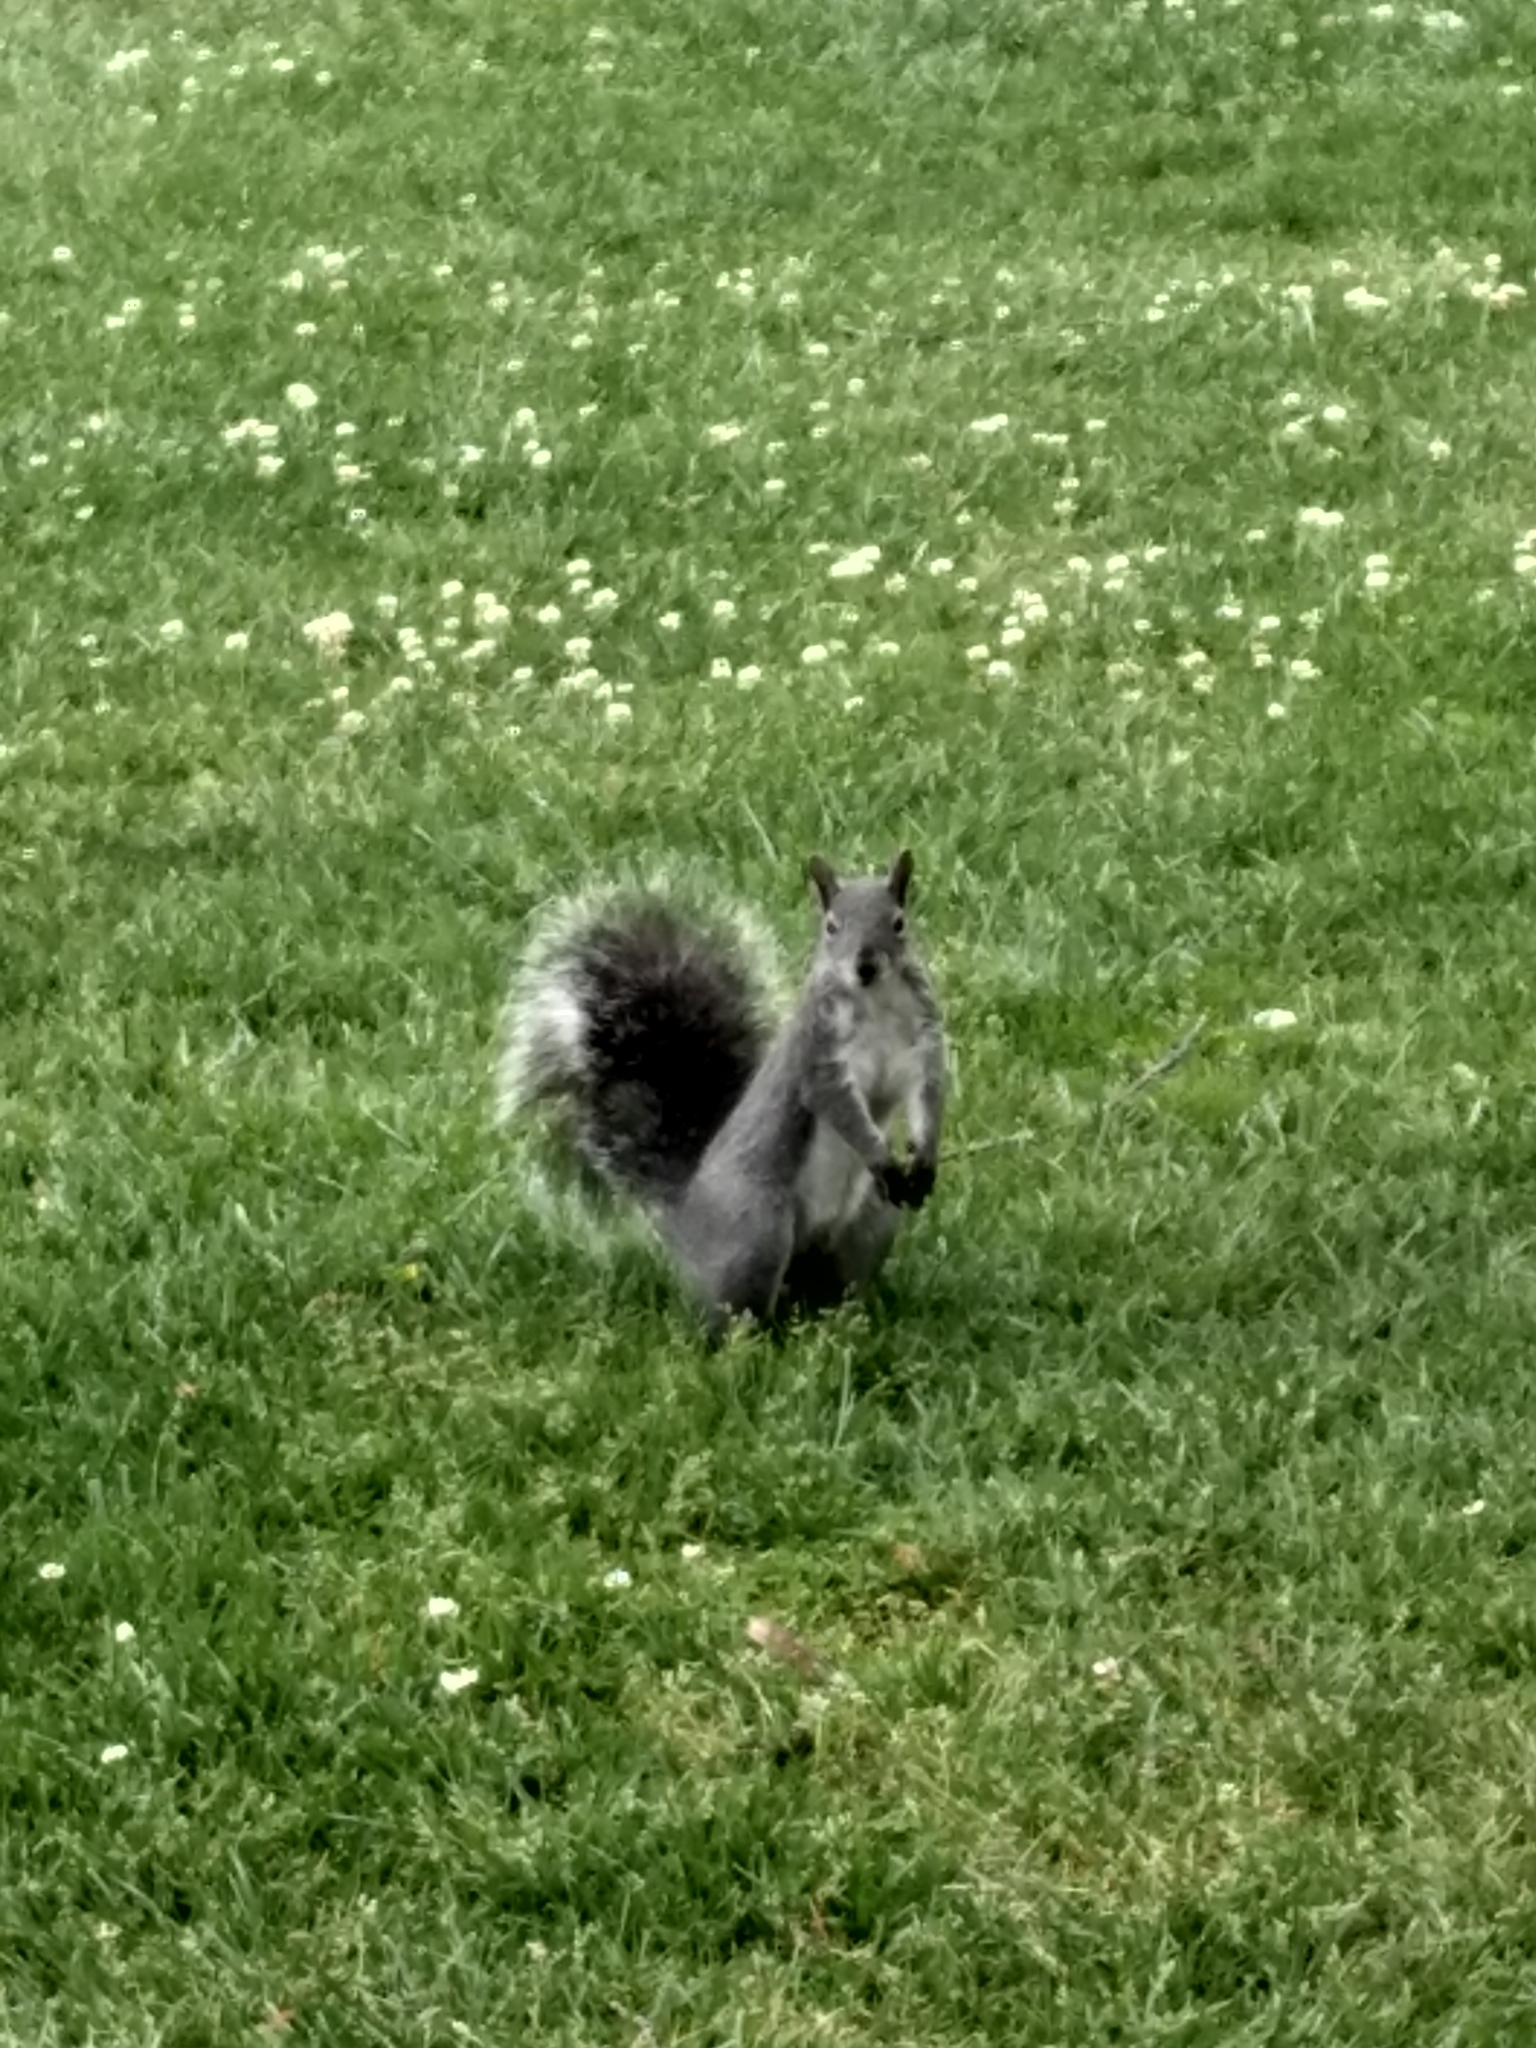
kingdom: Animalia
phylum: Chordata
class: Mammalia
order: Rodentia
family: Sciuridae
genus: Sciurus
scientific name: Sciurus griseus
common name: Western gray squirrel
